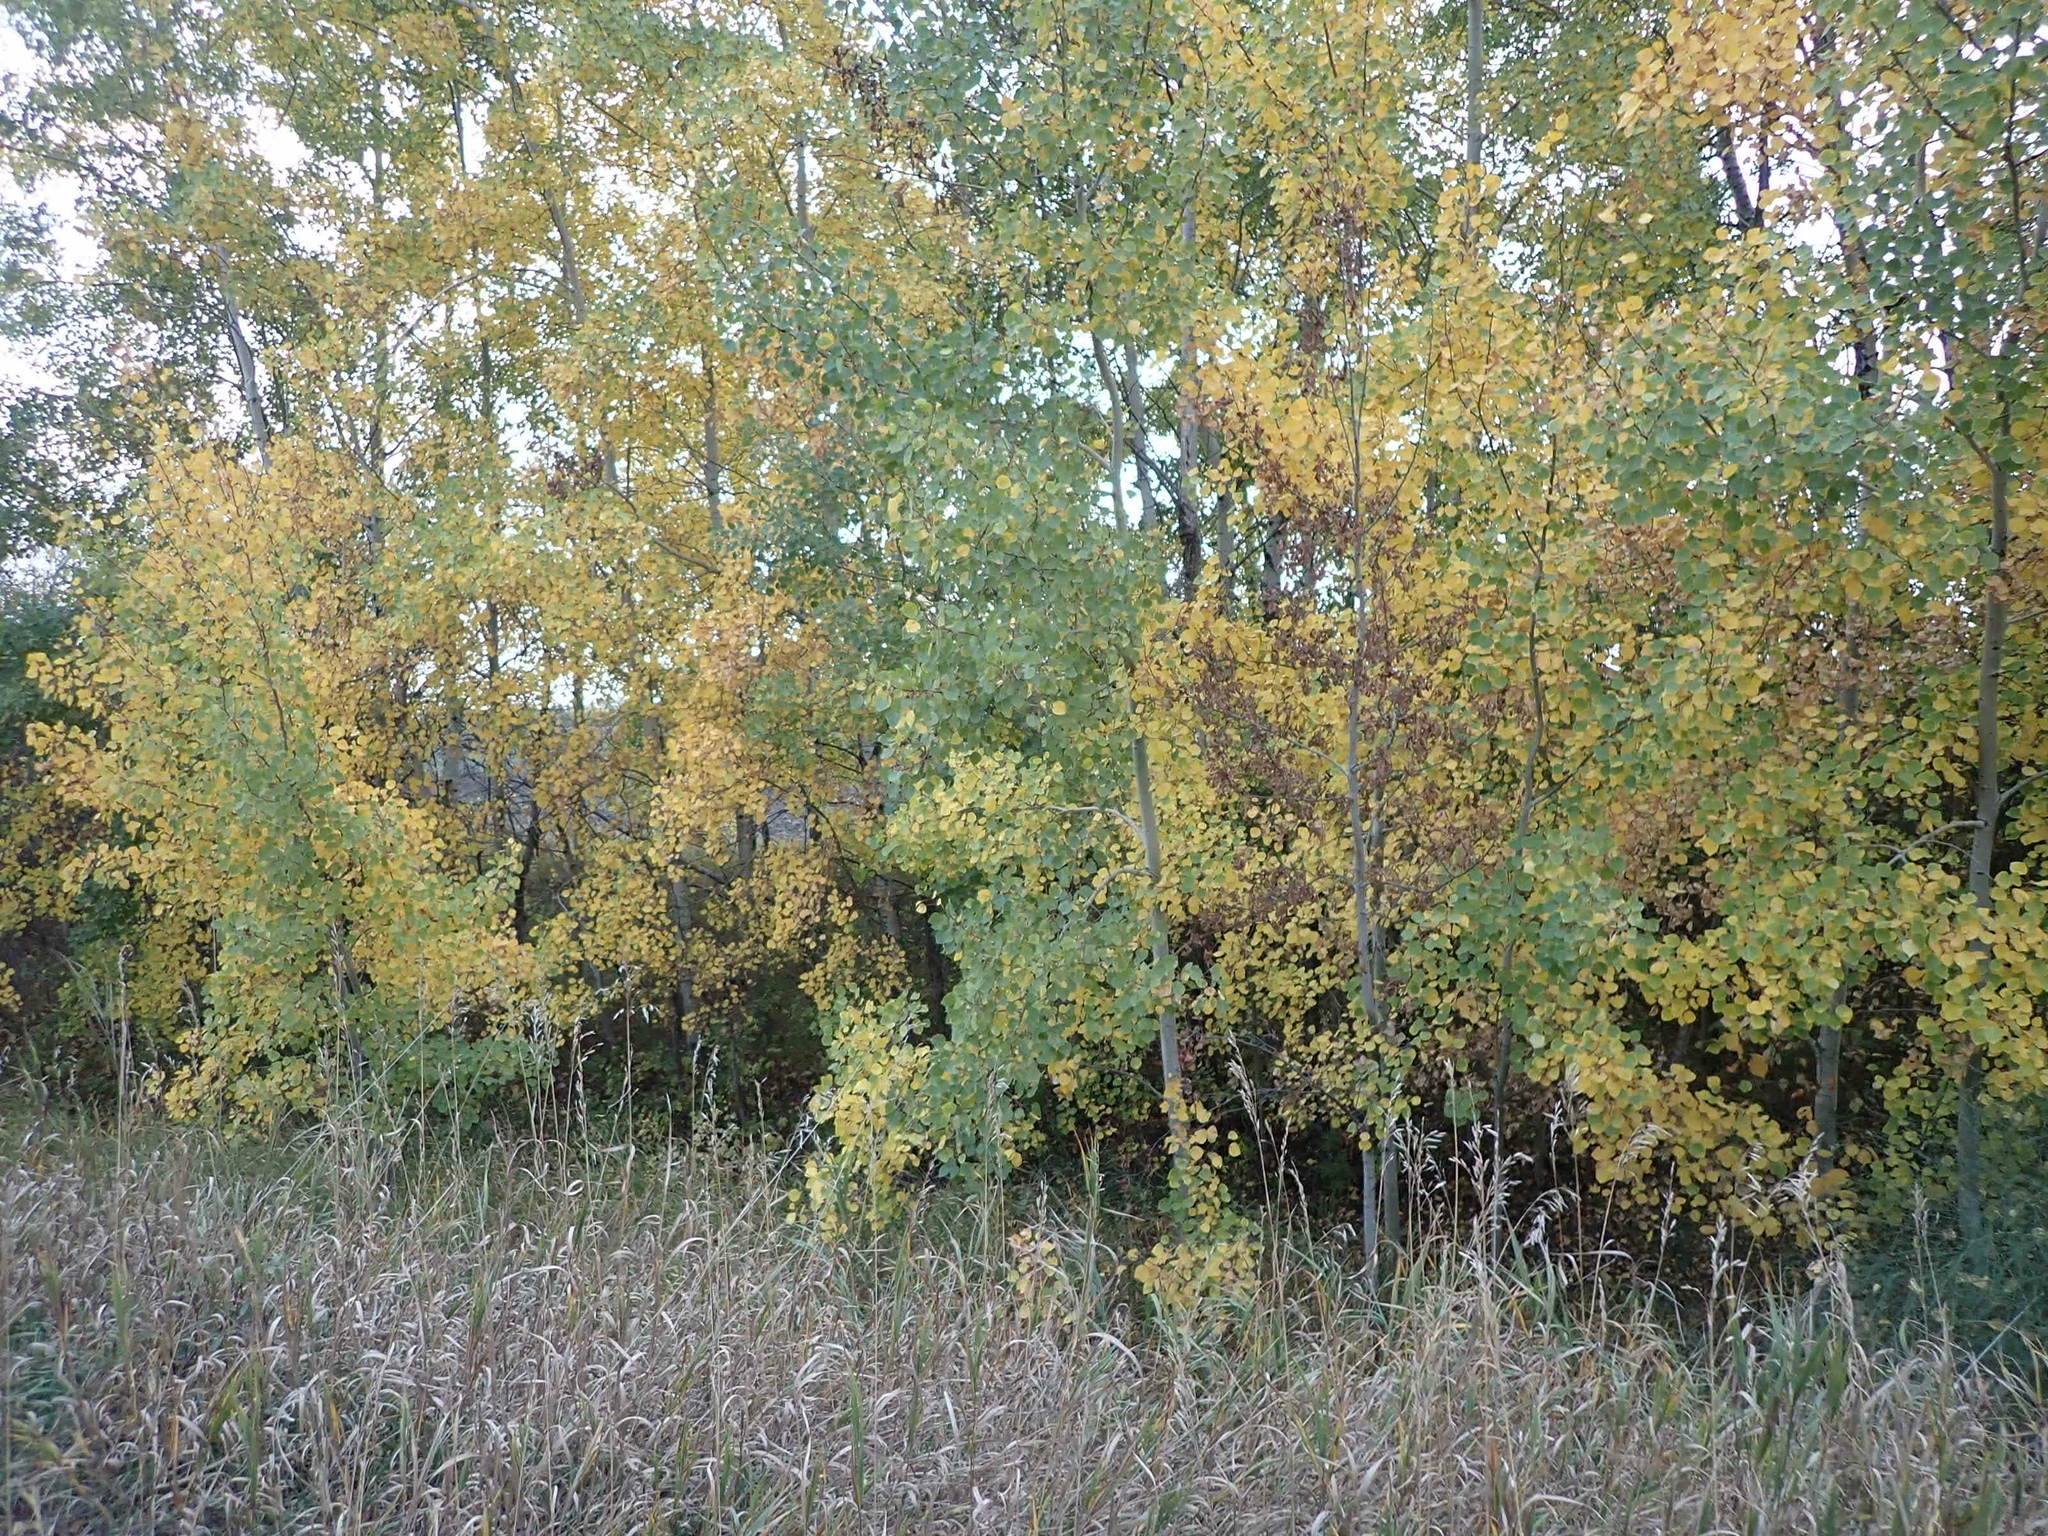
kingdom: Plantae
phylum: Tracheophyta
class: Magnoliopsida
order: Malpighiales
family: Salicaceae
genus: Populus
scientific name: Populus tremuloides
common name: Quaking aspen
